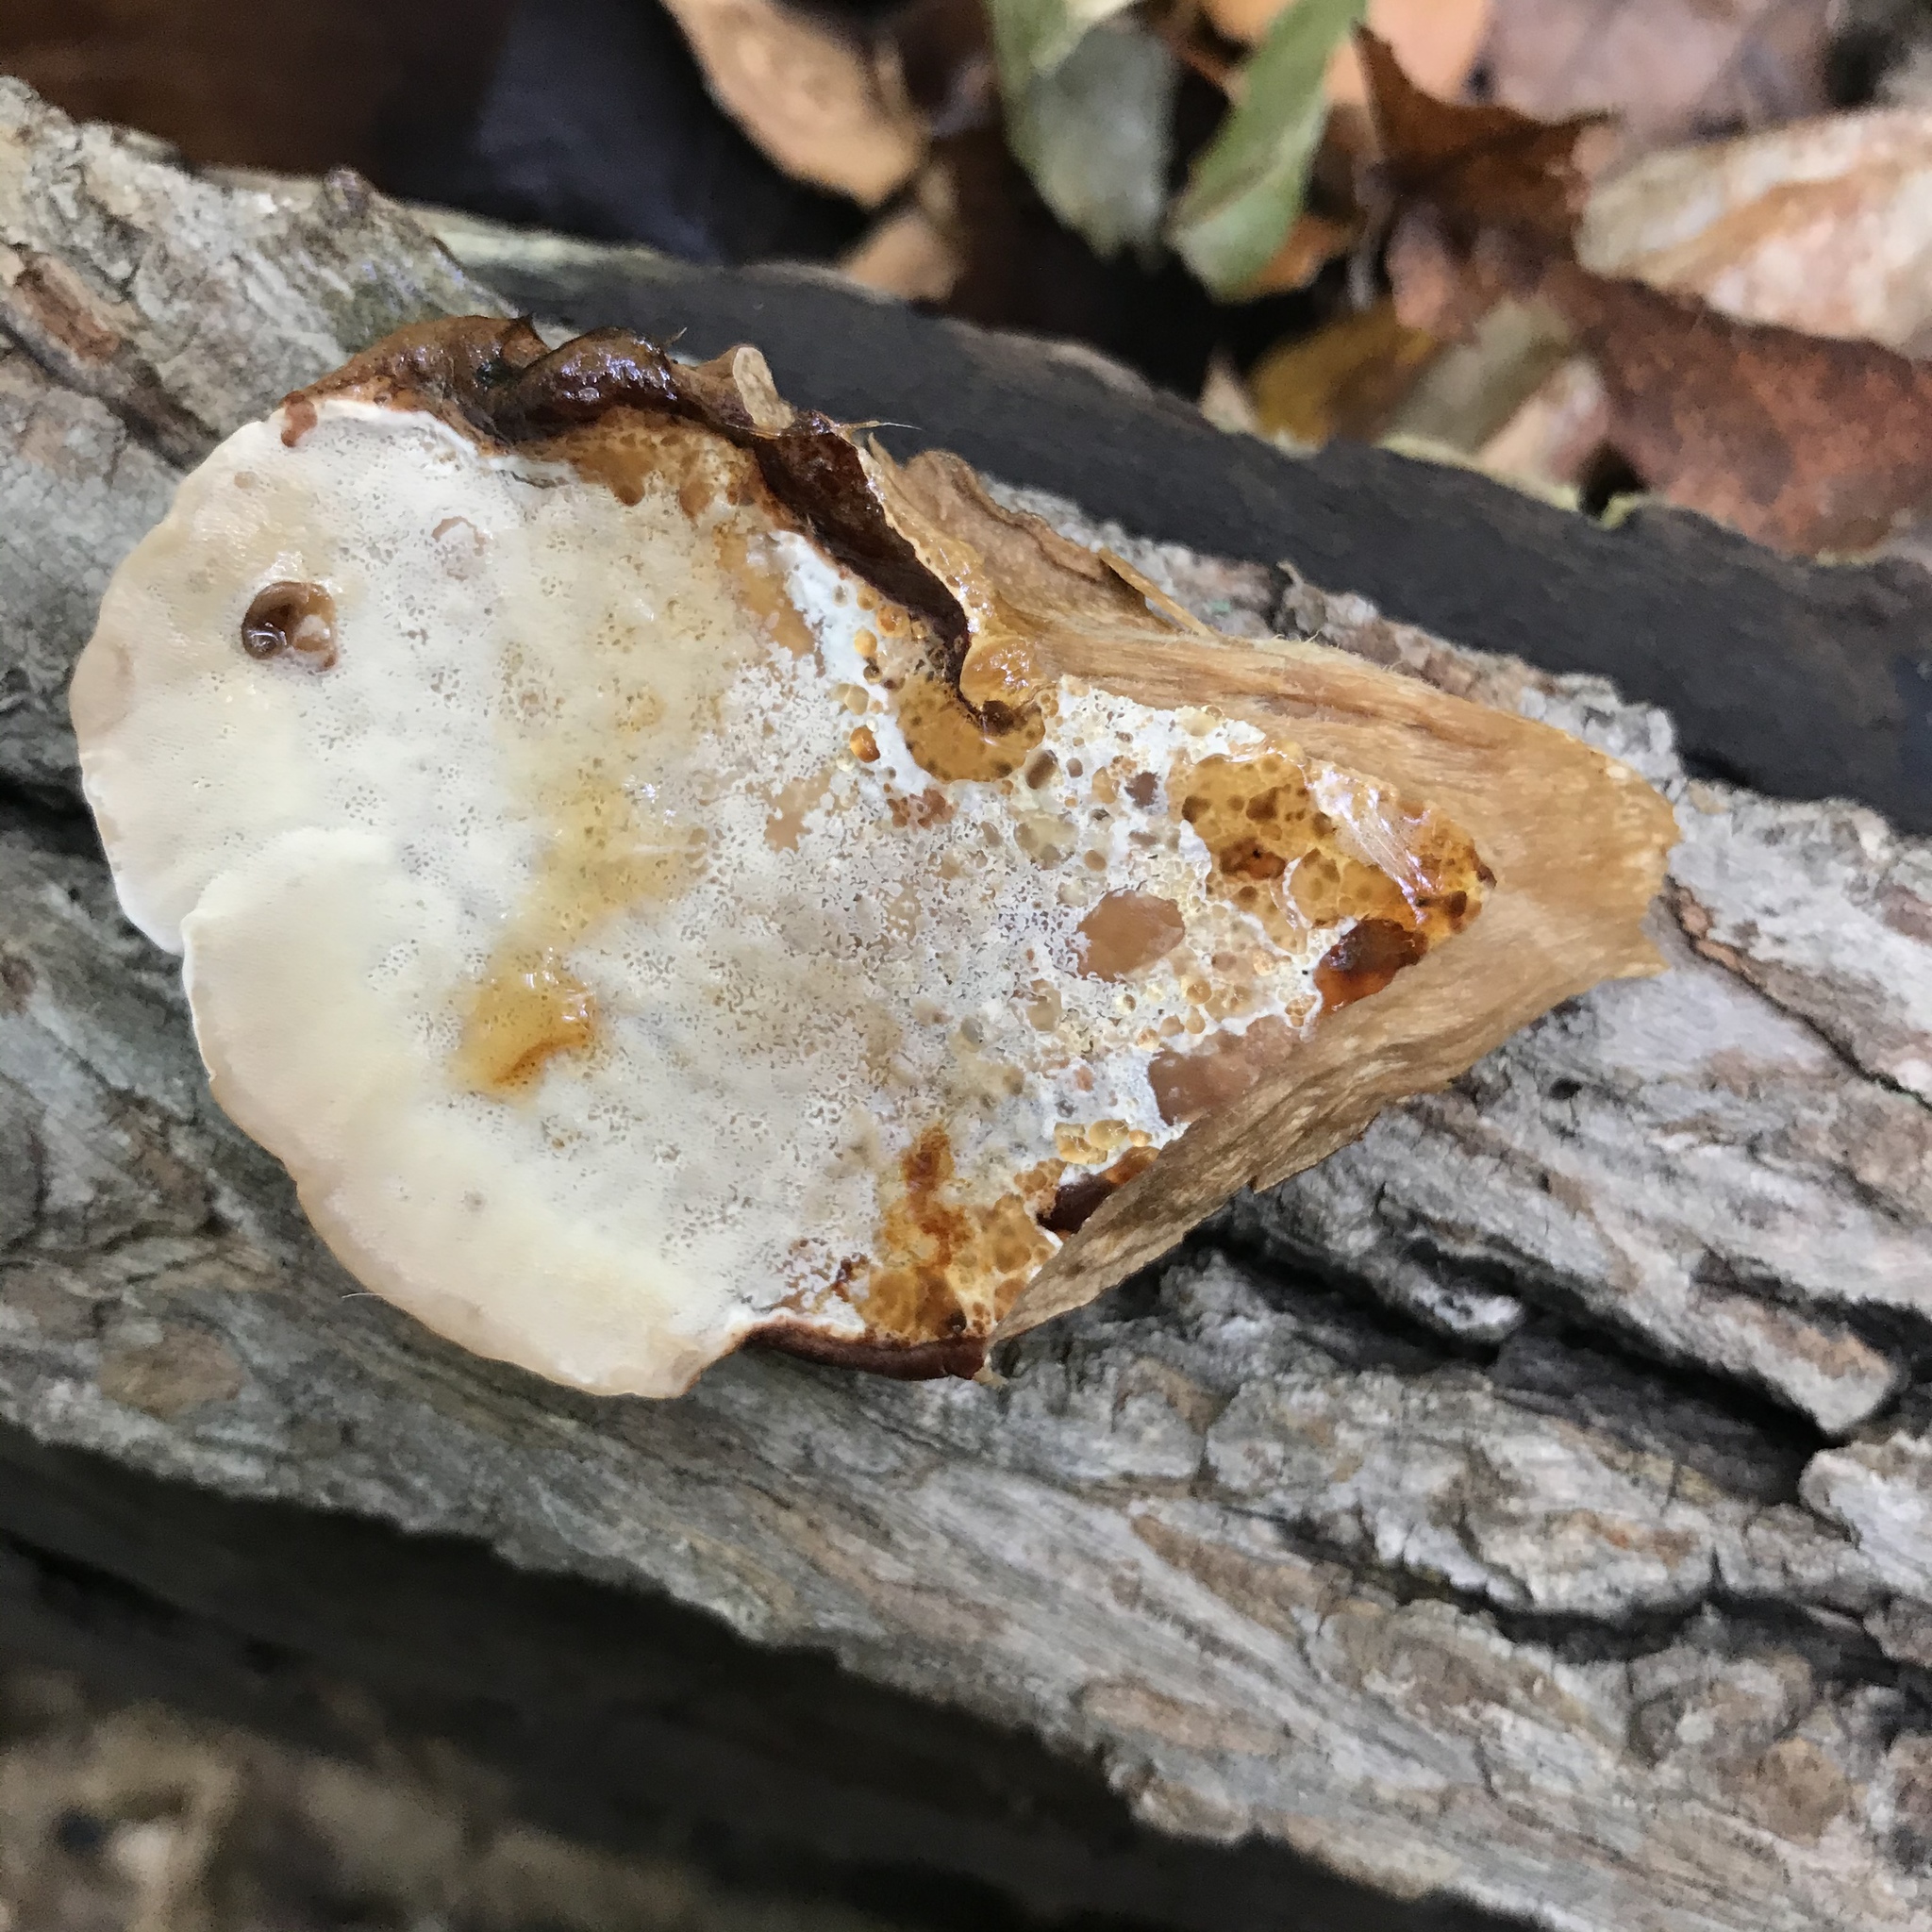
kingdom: Fungi
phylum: Basidiomycota
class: Agaricomycetes
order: Polyporales
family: Ischnodermataceae
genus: Ischnoderma
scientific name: Ischnoderma resinosum
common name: Resinous polypore
